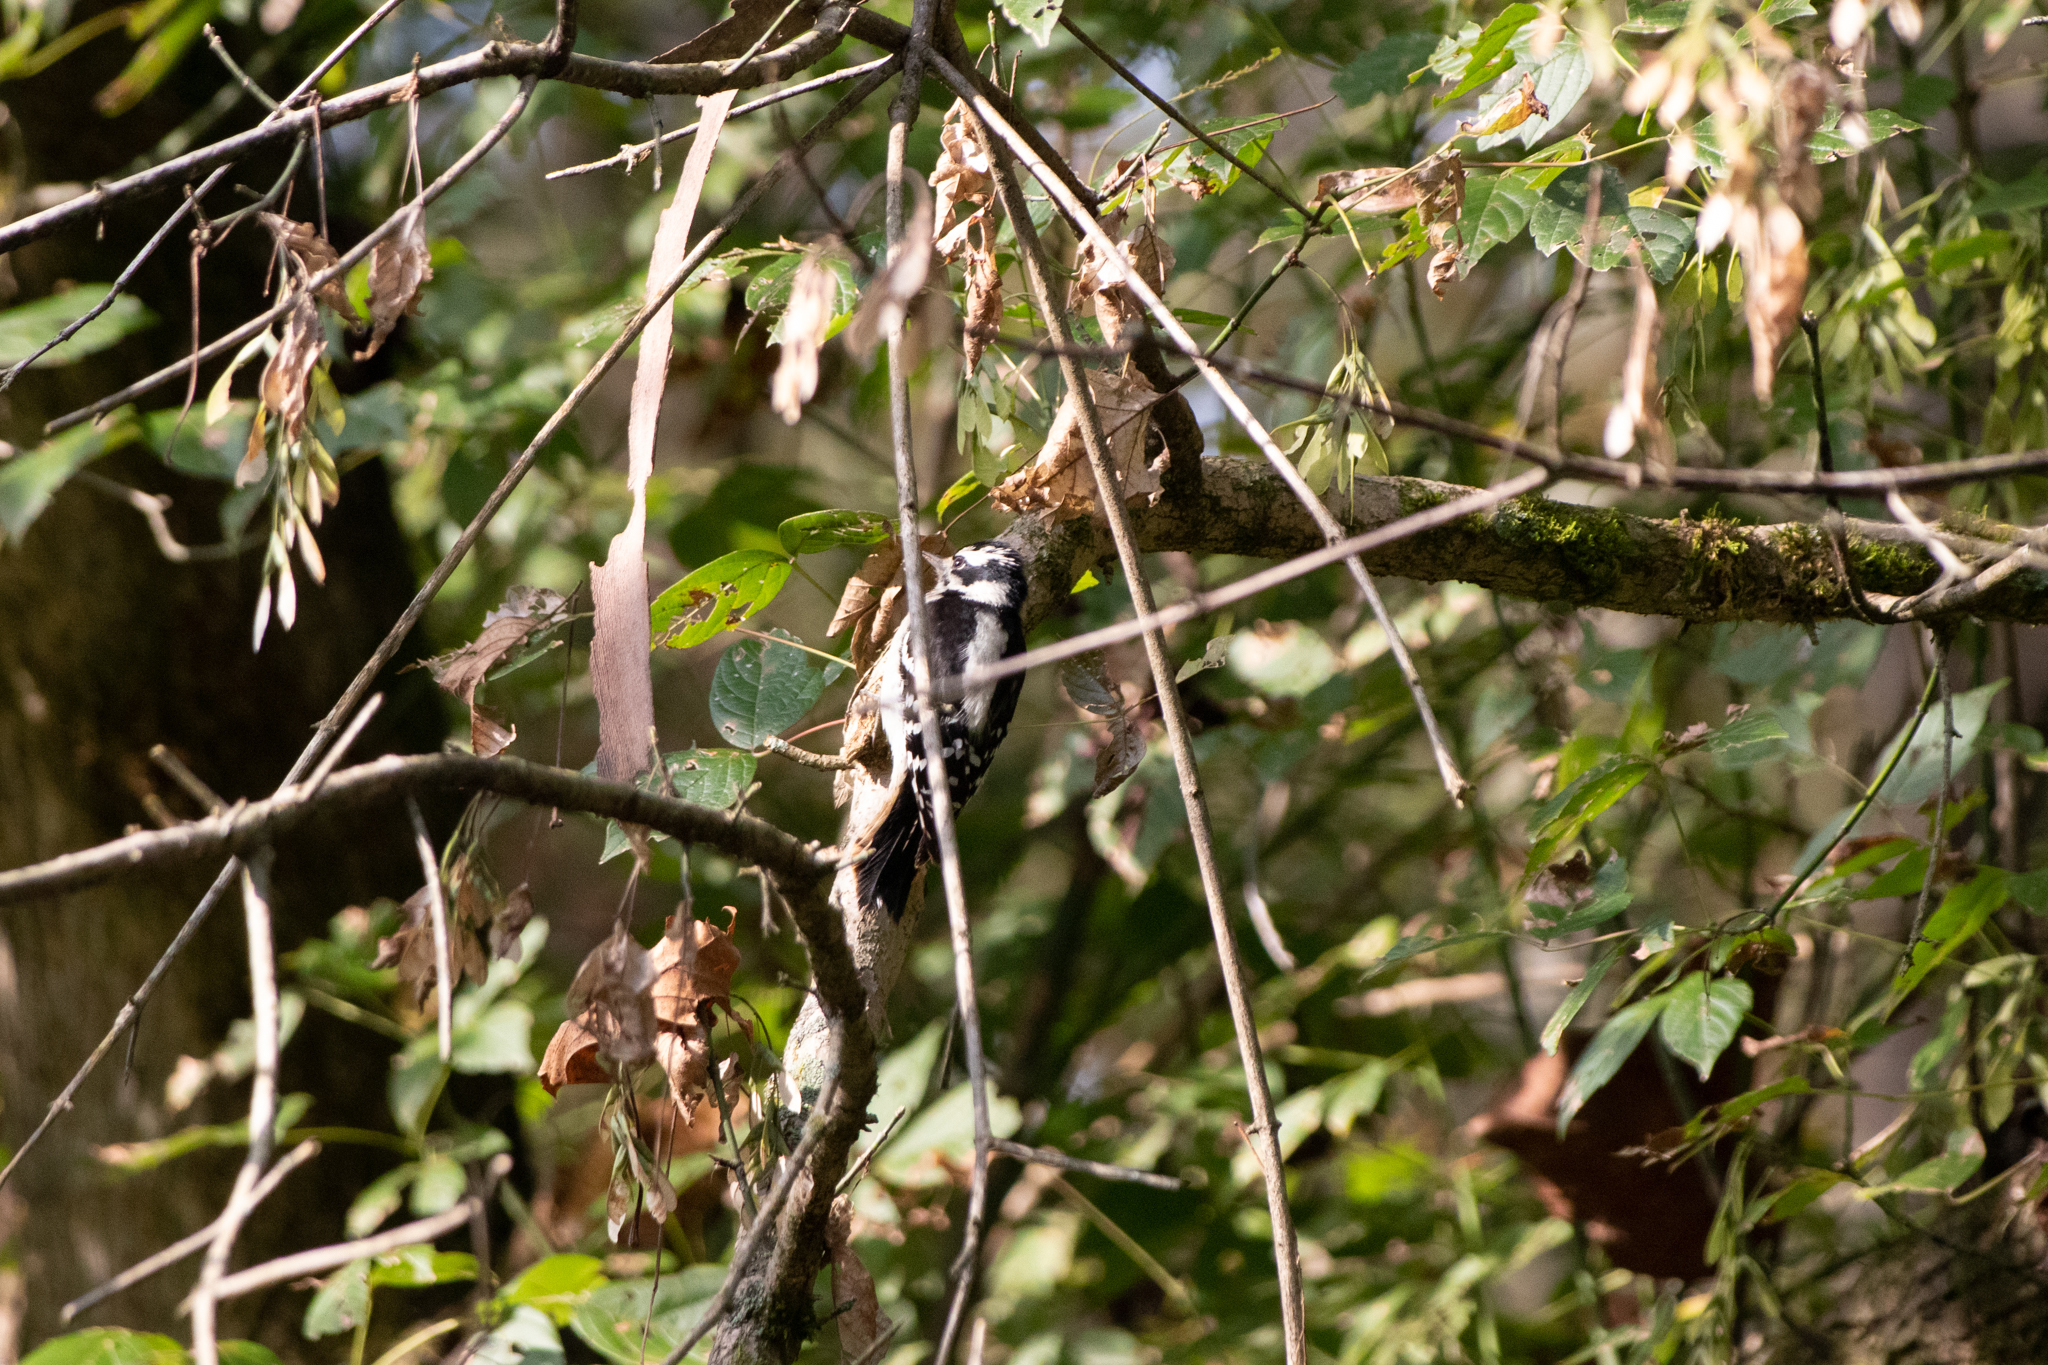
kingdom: Animalia
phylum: Chordata
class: Aves
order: Piciformes
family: Picidae
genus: Dryobates
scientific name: Dryobates pubescens
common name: Downy woodpecker
